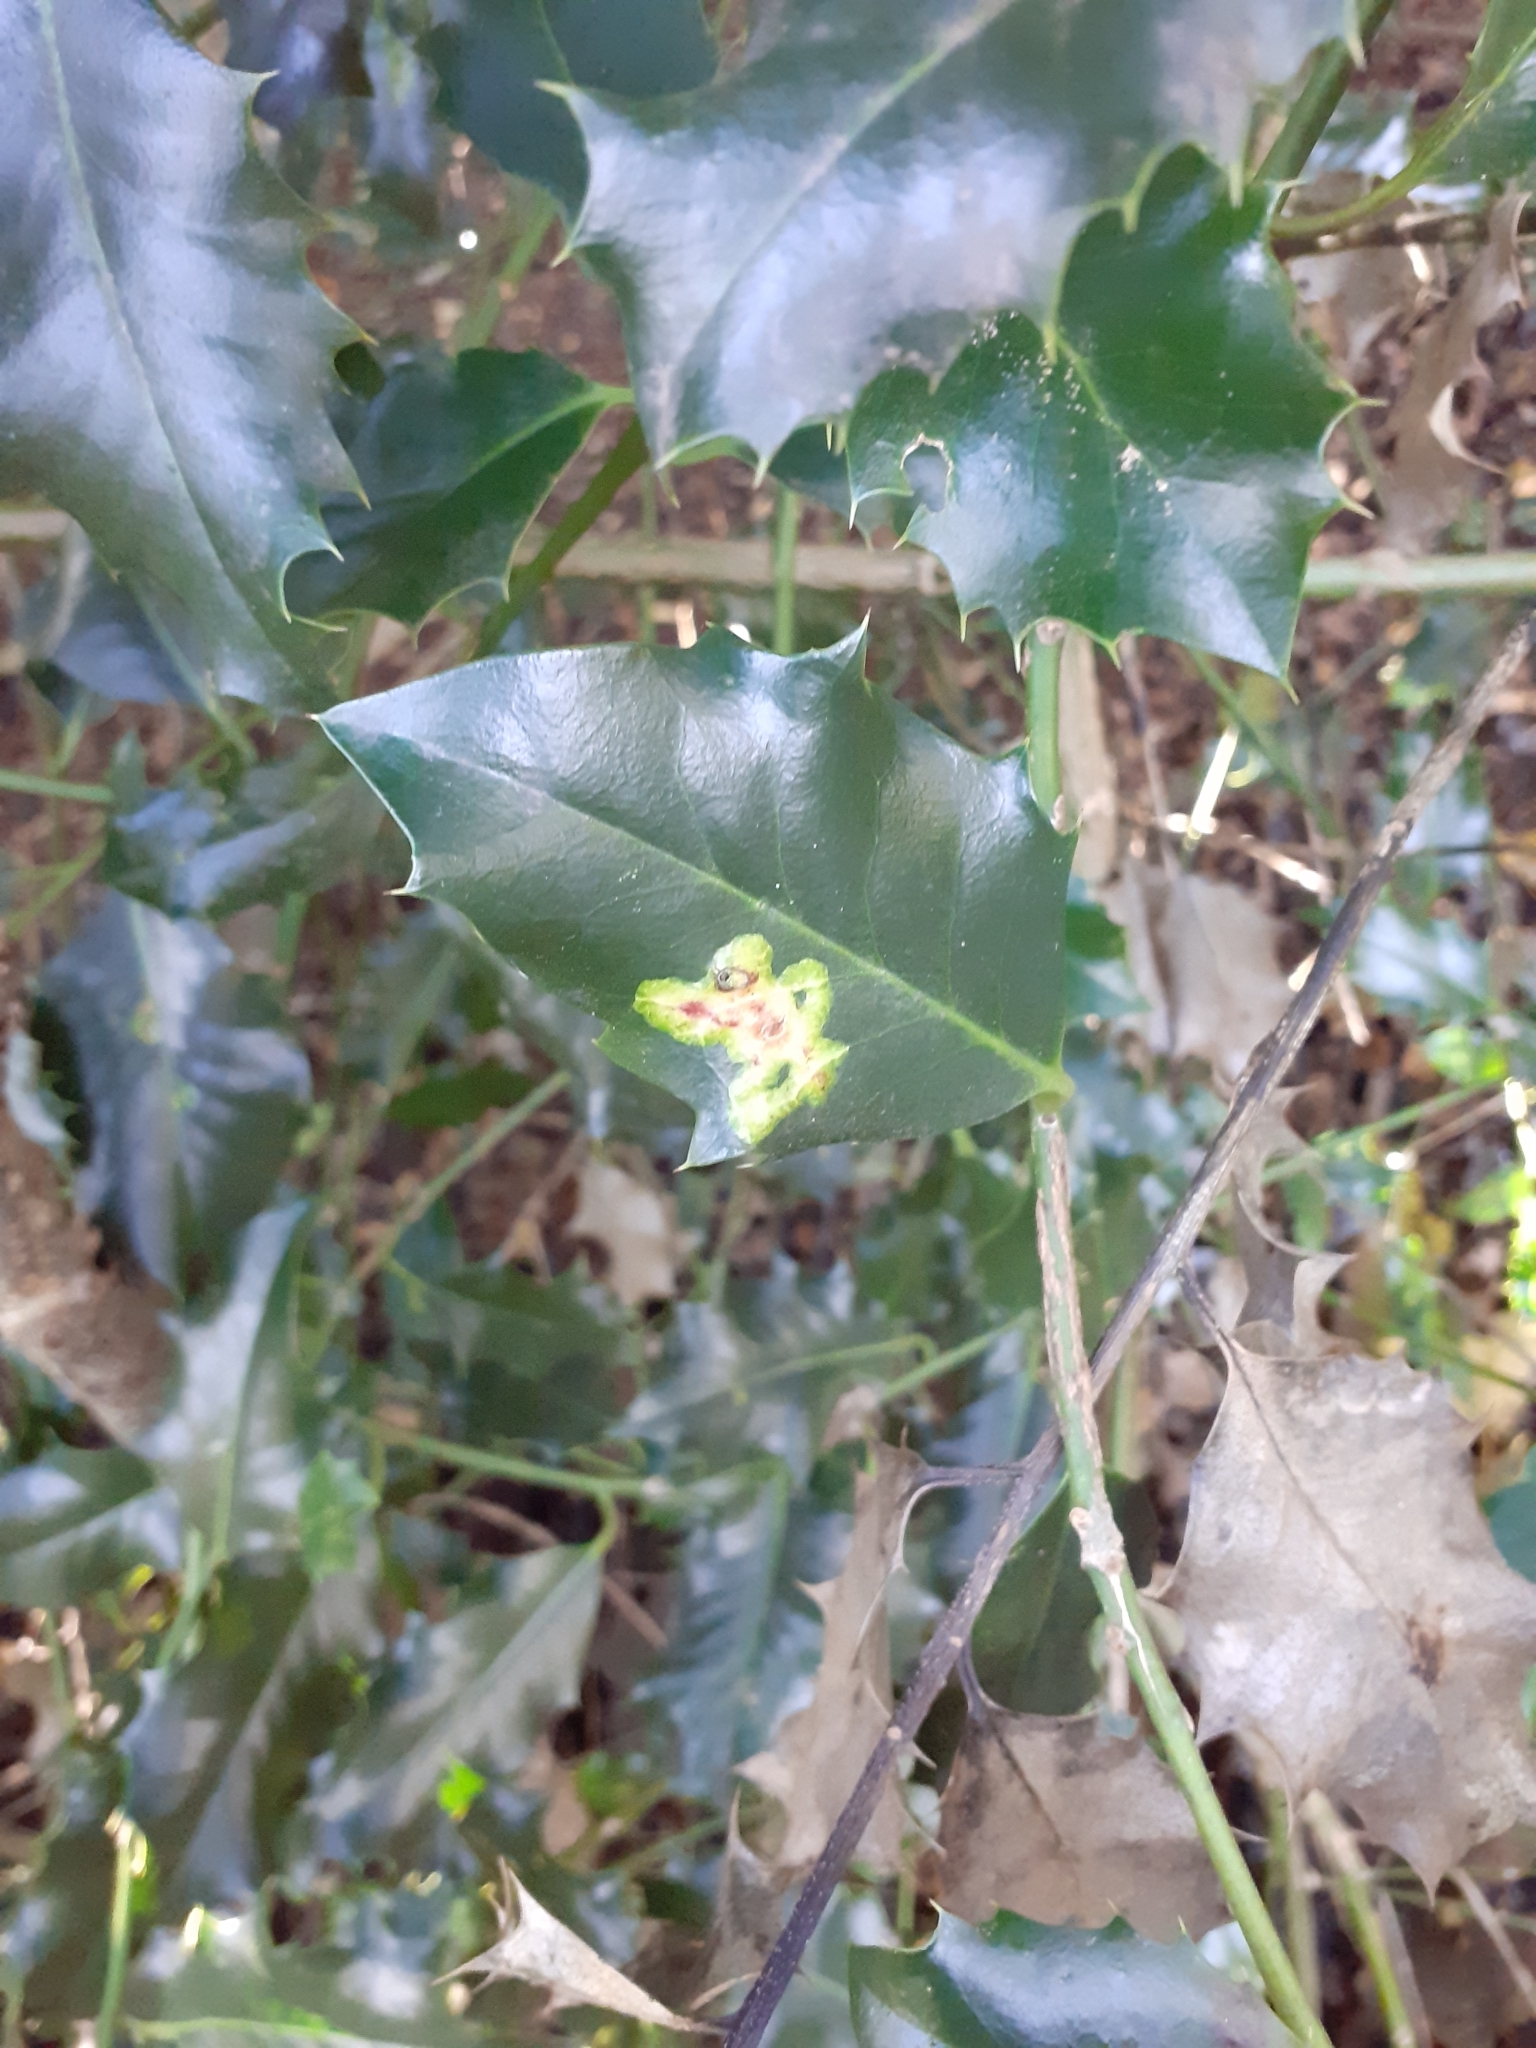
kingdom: Animalia
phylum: Arthropoda
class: Insecta
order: Diptera
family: Agromyzidae
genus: Phytomyza
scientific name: Phytomyza ilicis
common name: Holly leafminer
